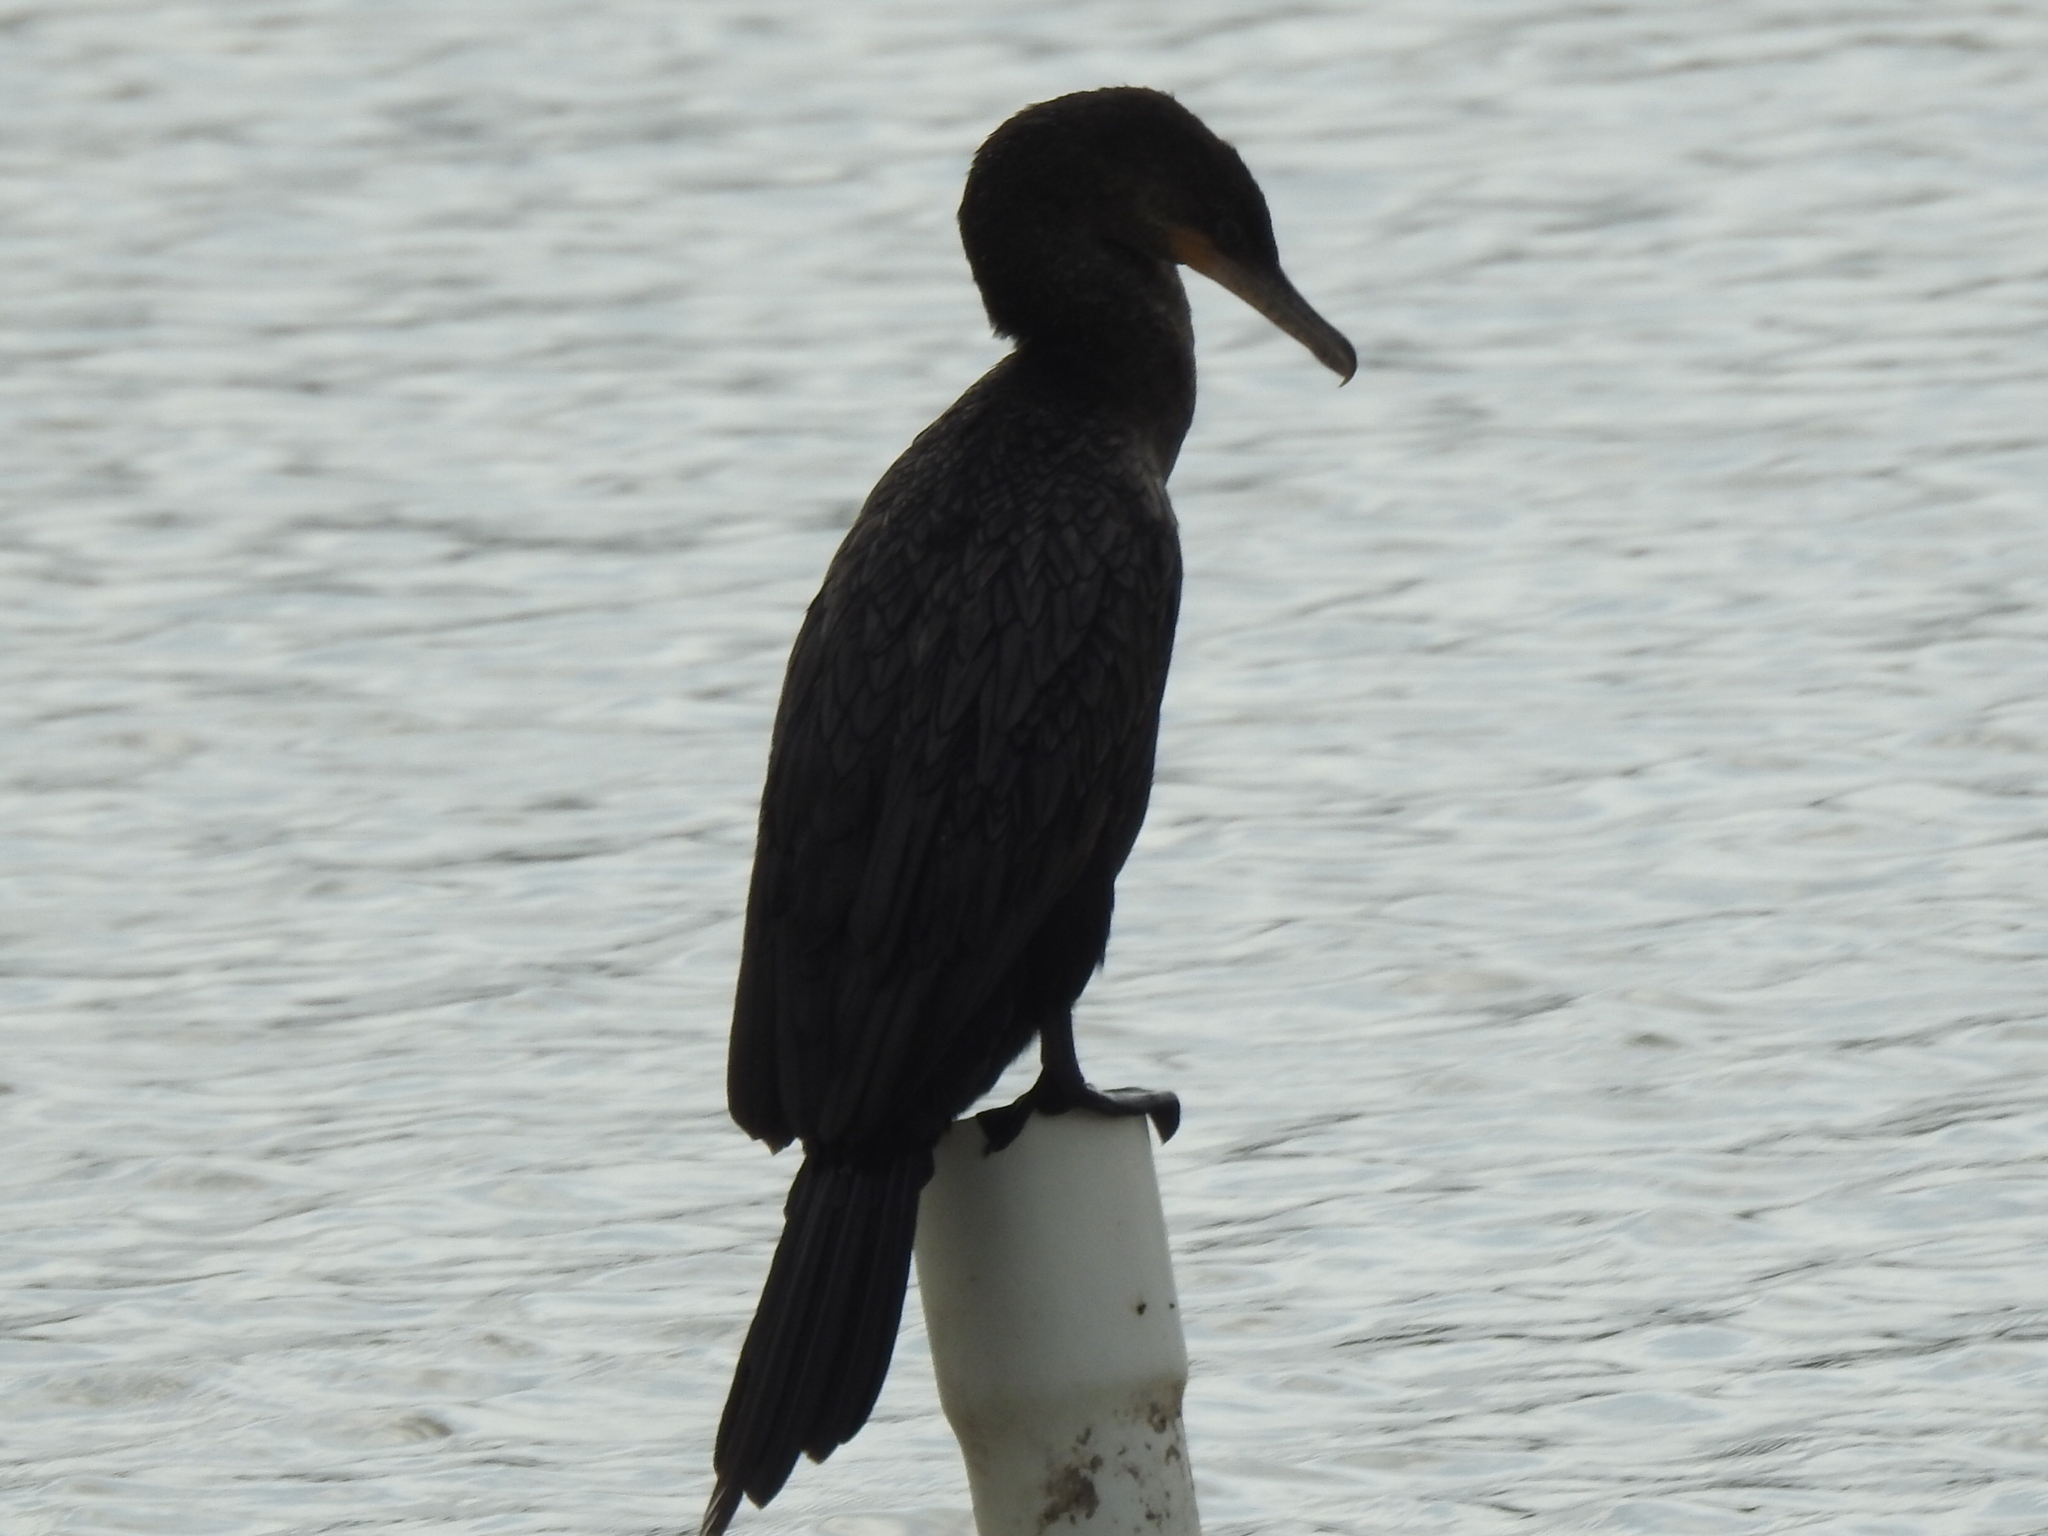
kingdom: Animalia
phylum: Chordata
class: Aves
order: Suliformes
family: Phalacrocoracidae
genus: Phalacrocorax
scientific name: Phalacrocorax brasilianus
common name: Neotropic cormorant
